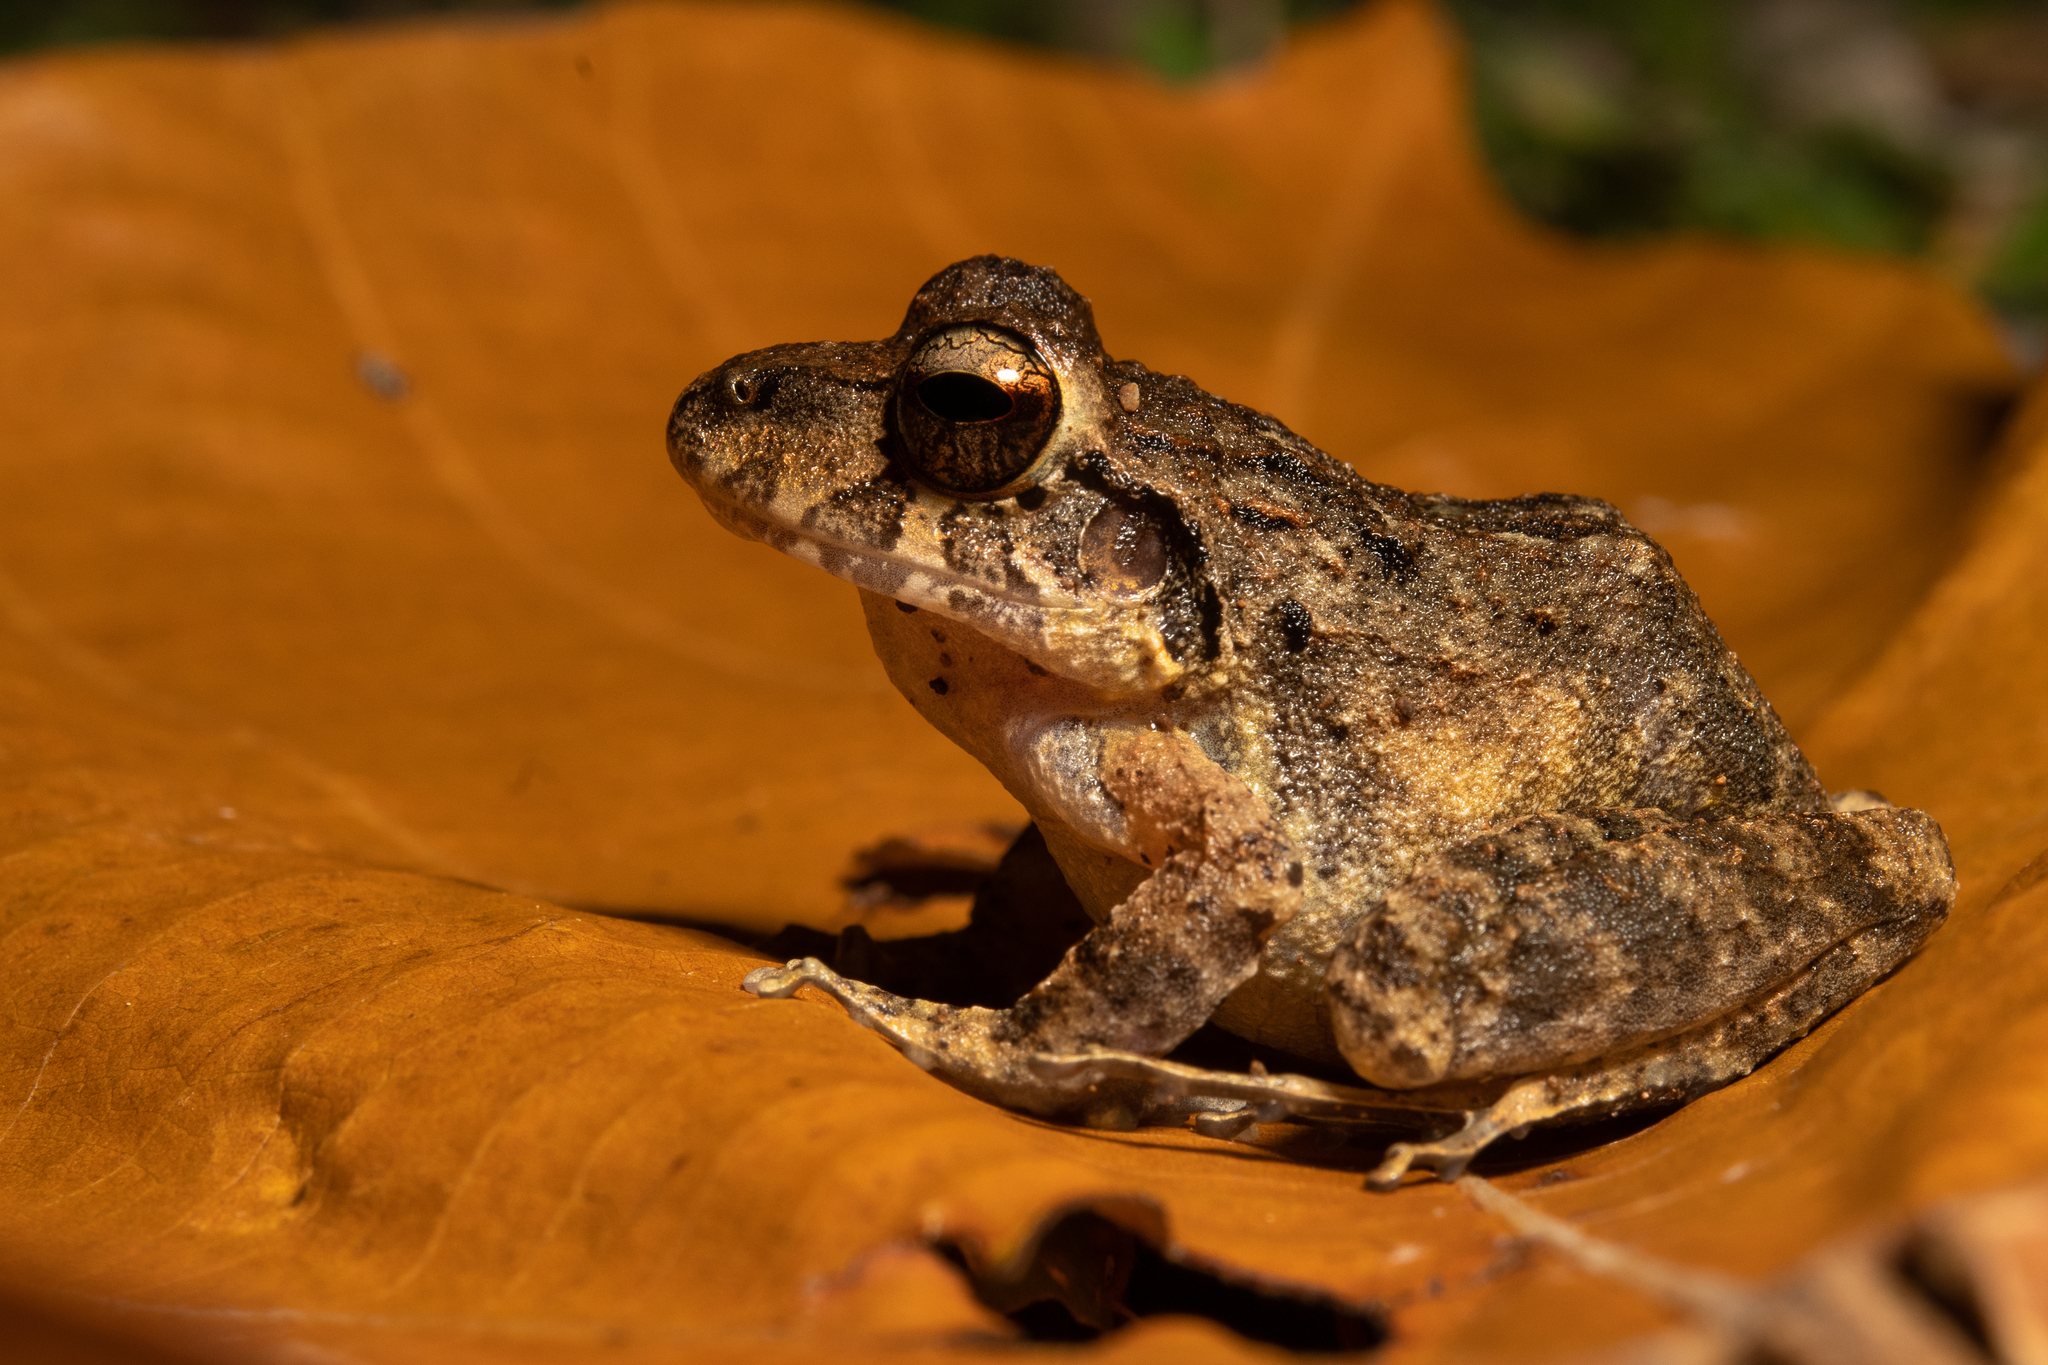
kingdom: Animalia
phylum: Chordata
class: Amphibia
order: Anura
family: Craugastoridae
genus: Craugastor
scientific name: Craugastor laevissimus
